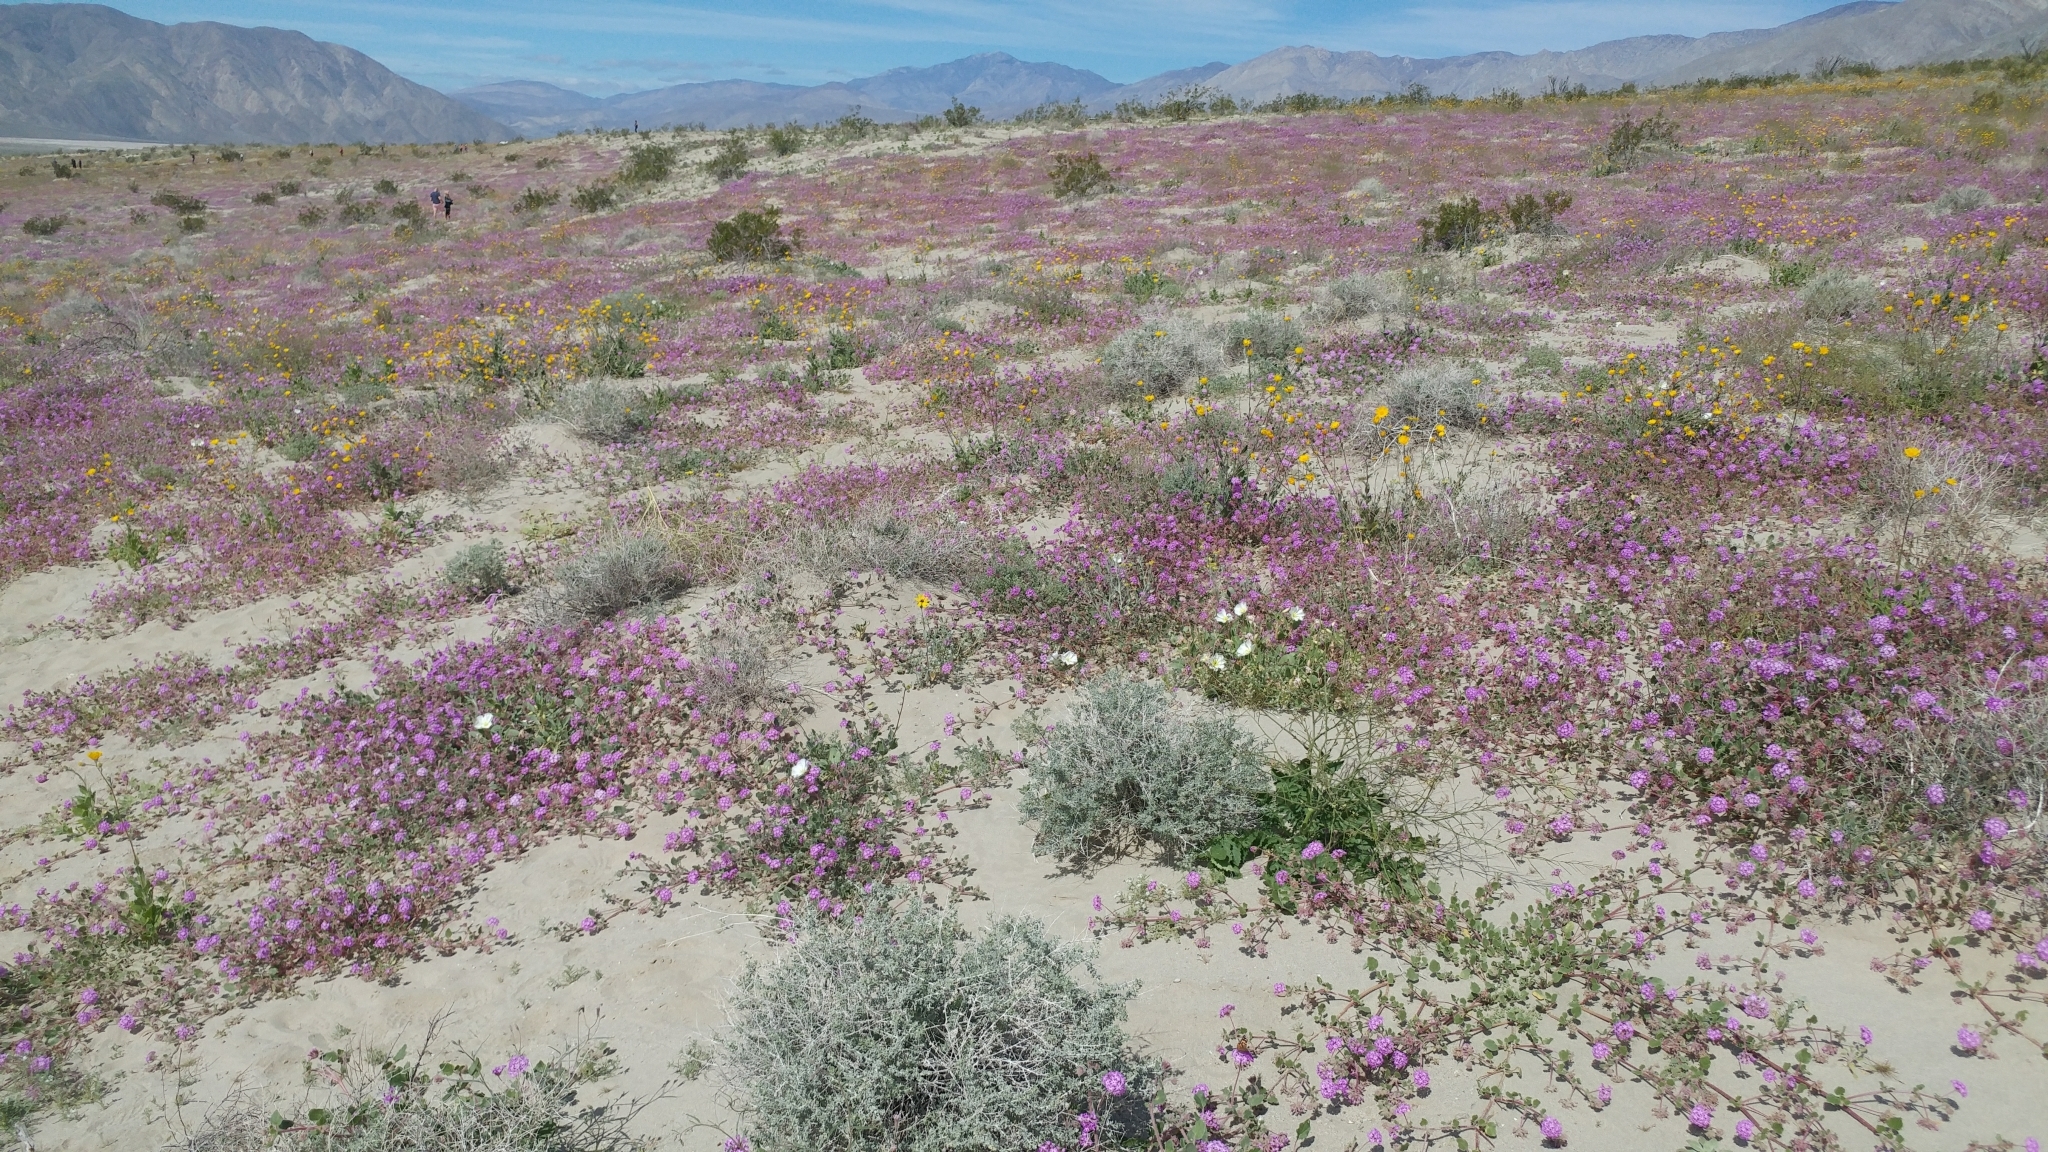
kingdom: Plantae
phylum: Tracheophyta
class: Magnoliopsida
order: Caryophyllales
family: Nyctaginaceae
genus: Abronia
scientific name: Abronia villosa
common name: Desert sand-verbena
